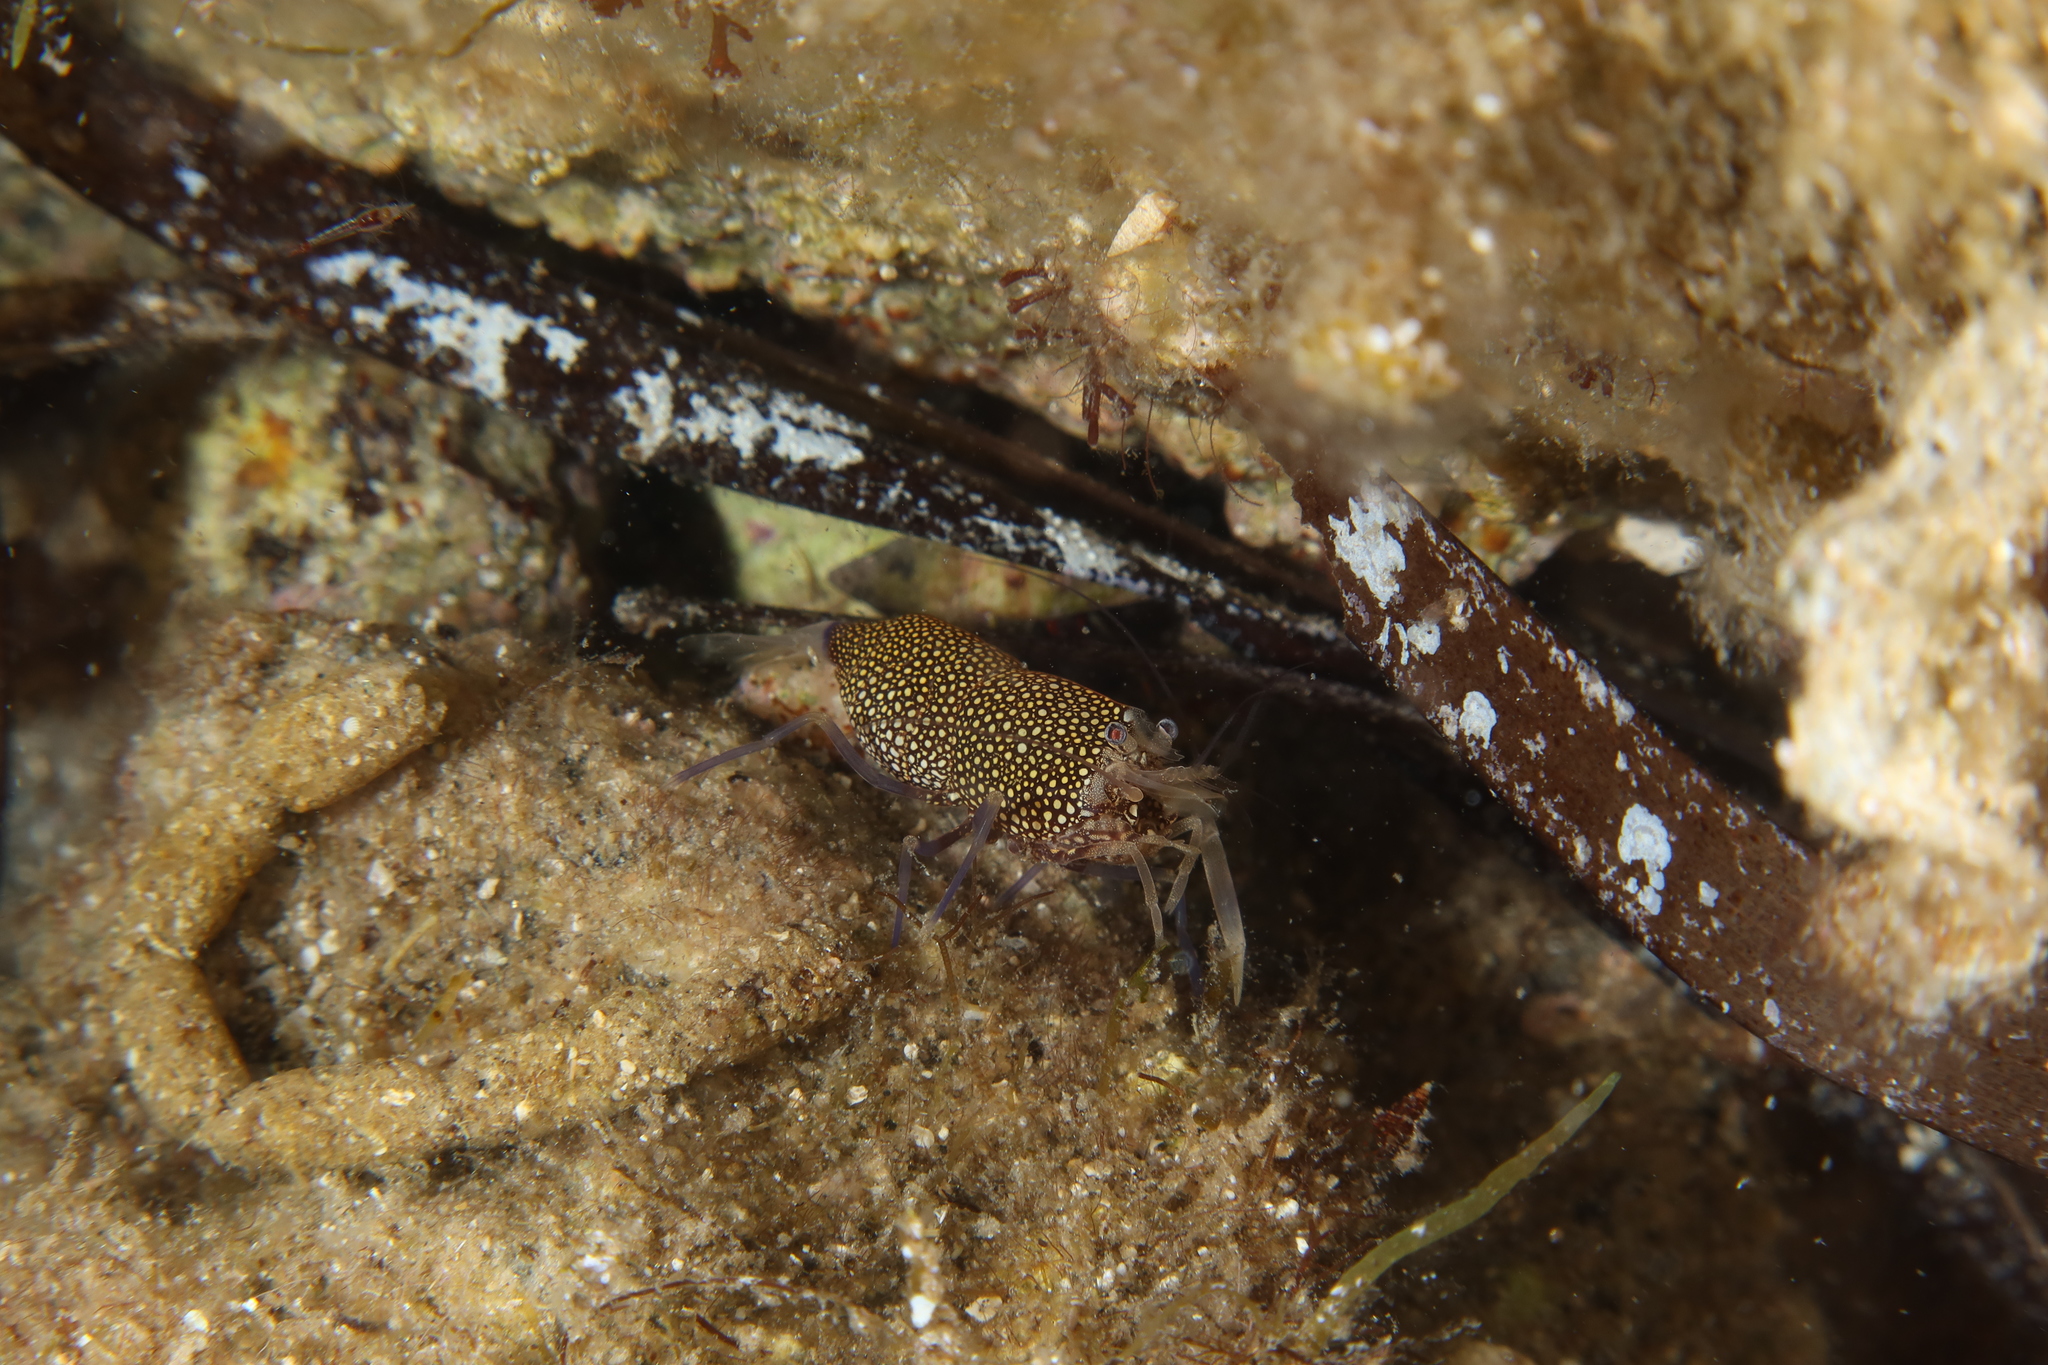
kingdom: Animalia
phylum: Arthropoda
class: Malacostraca
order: Decapoda
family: Palaemonidae
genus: Gnathophyllum
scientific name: Gnathophyllum elegans
